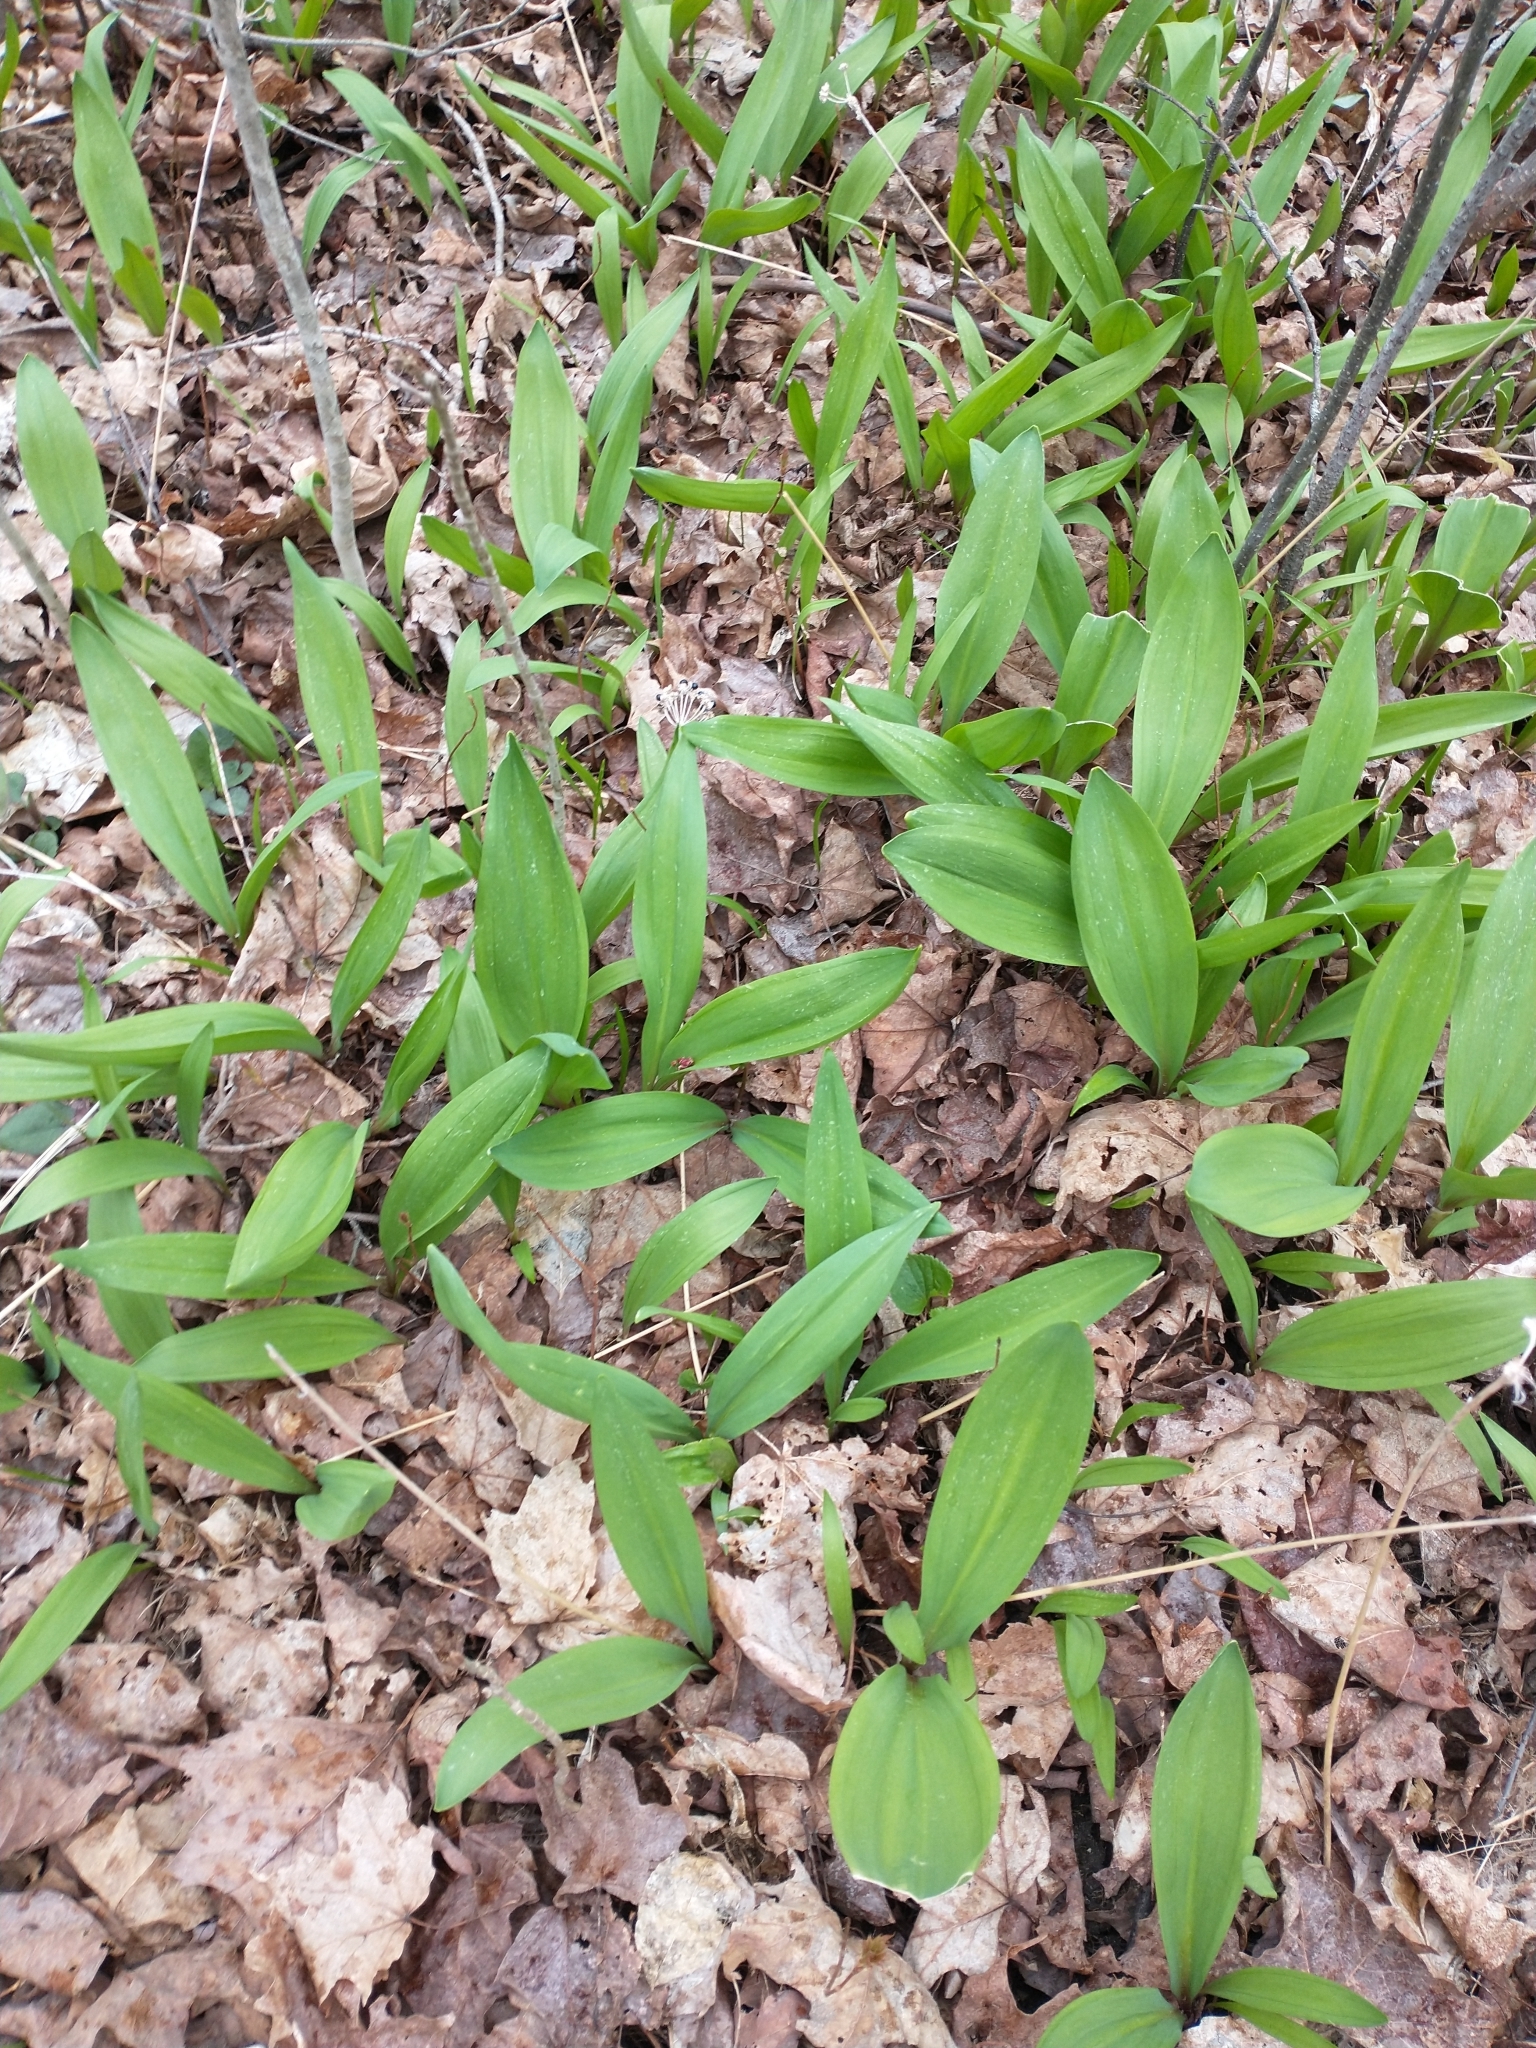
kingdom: Plantae
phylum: Tracheophyta
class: Liliopsida
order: Asparagales
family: Amaryllidaceae
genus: Allium
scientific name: Allium tricoccum
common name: Ramp
